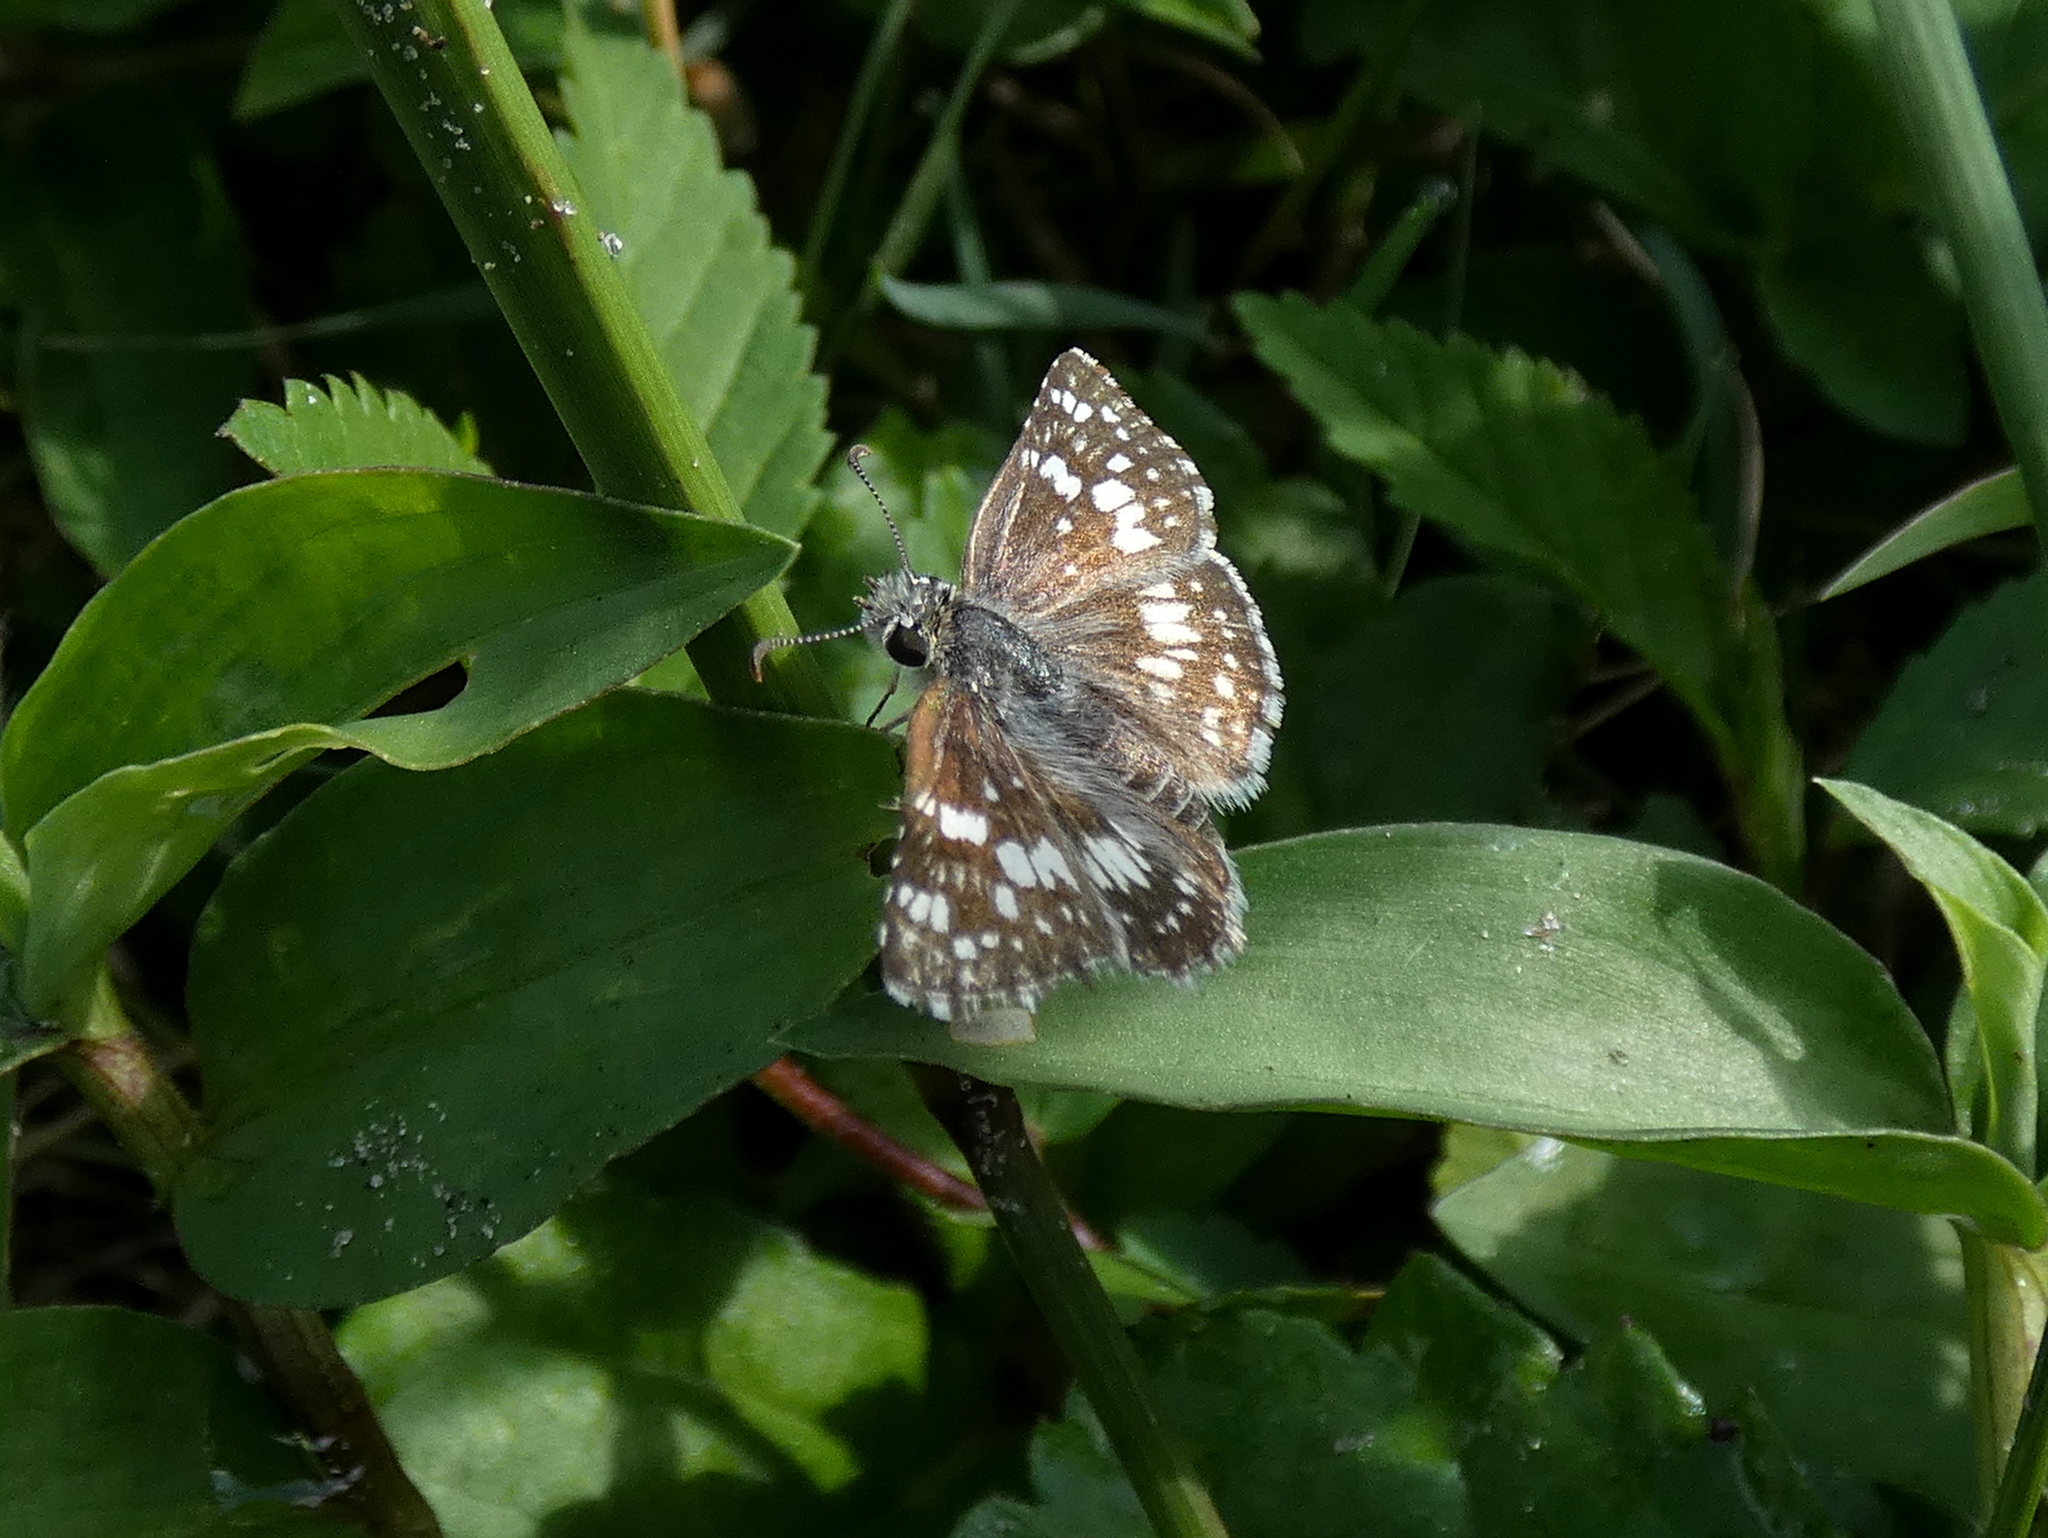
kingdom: Animalia
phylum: Arthropoda
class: Insecta
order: Lepidoptera
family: Hesperiidae
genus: Burnsius
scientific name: Burnsius albezens
